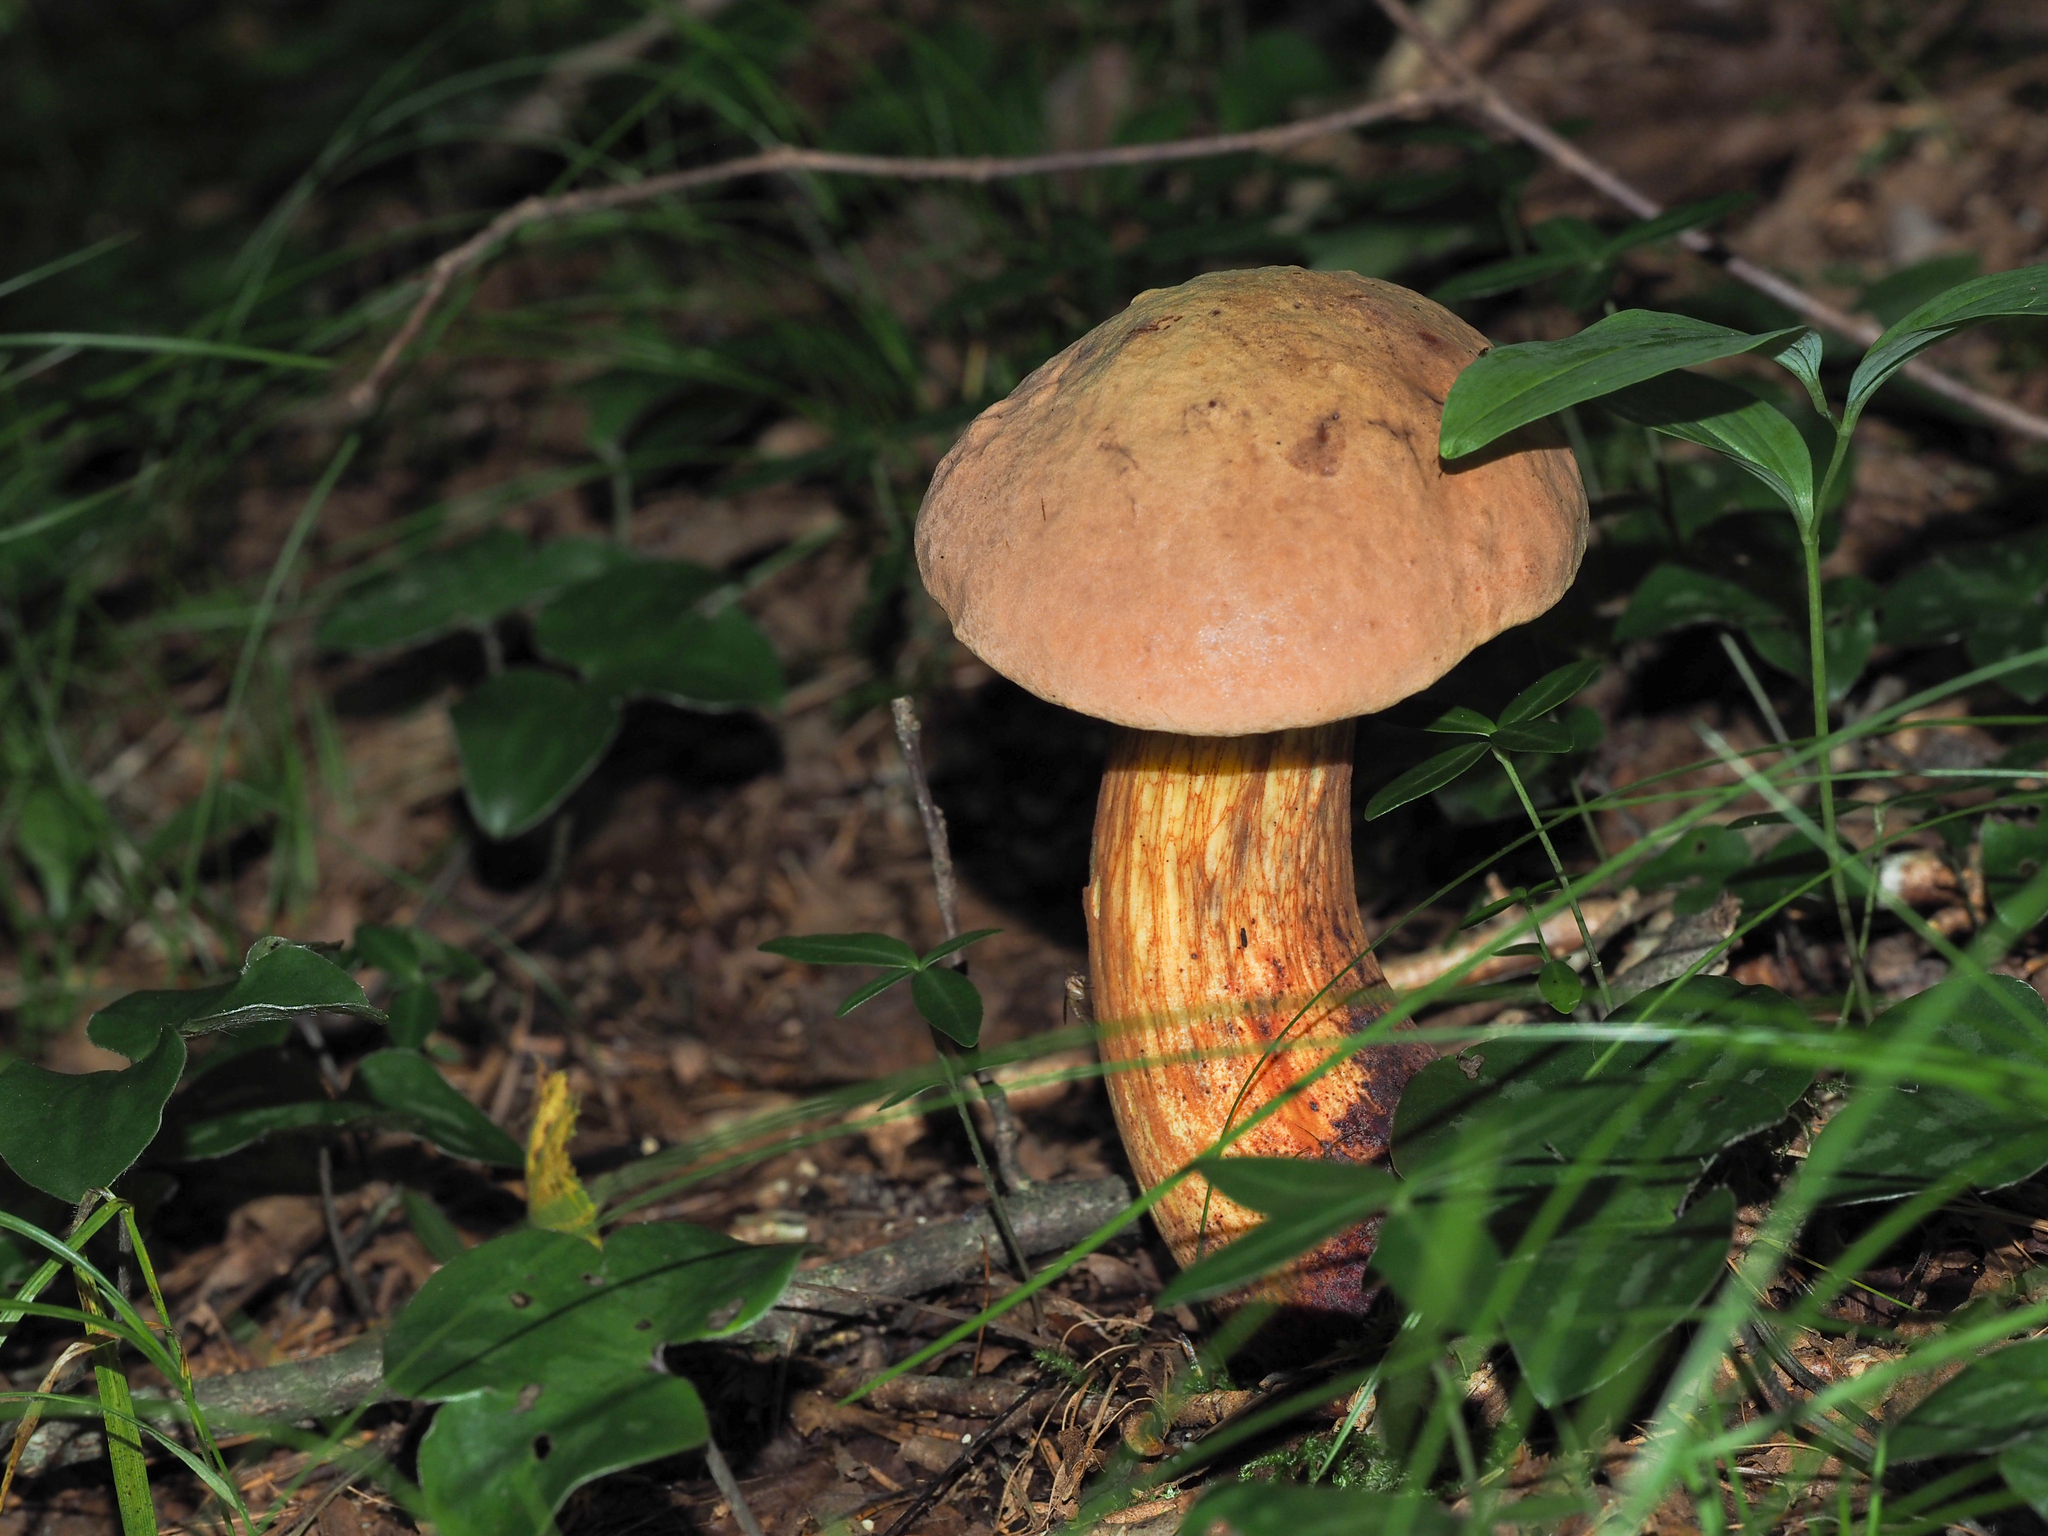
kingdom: Fungi
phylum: Basidiomycota
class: Agaricomycetes
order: Boletales
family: Boletaceae
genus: Suillellus
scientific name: Suillellus luridus
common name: Lurid bolete
